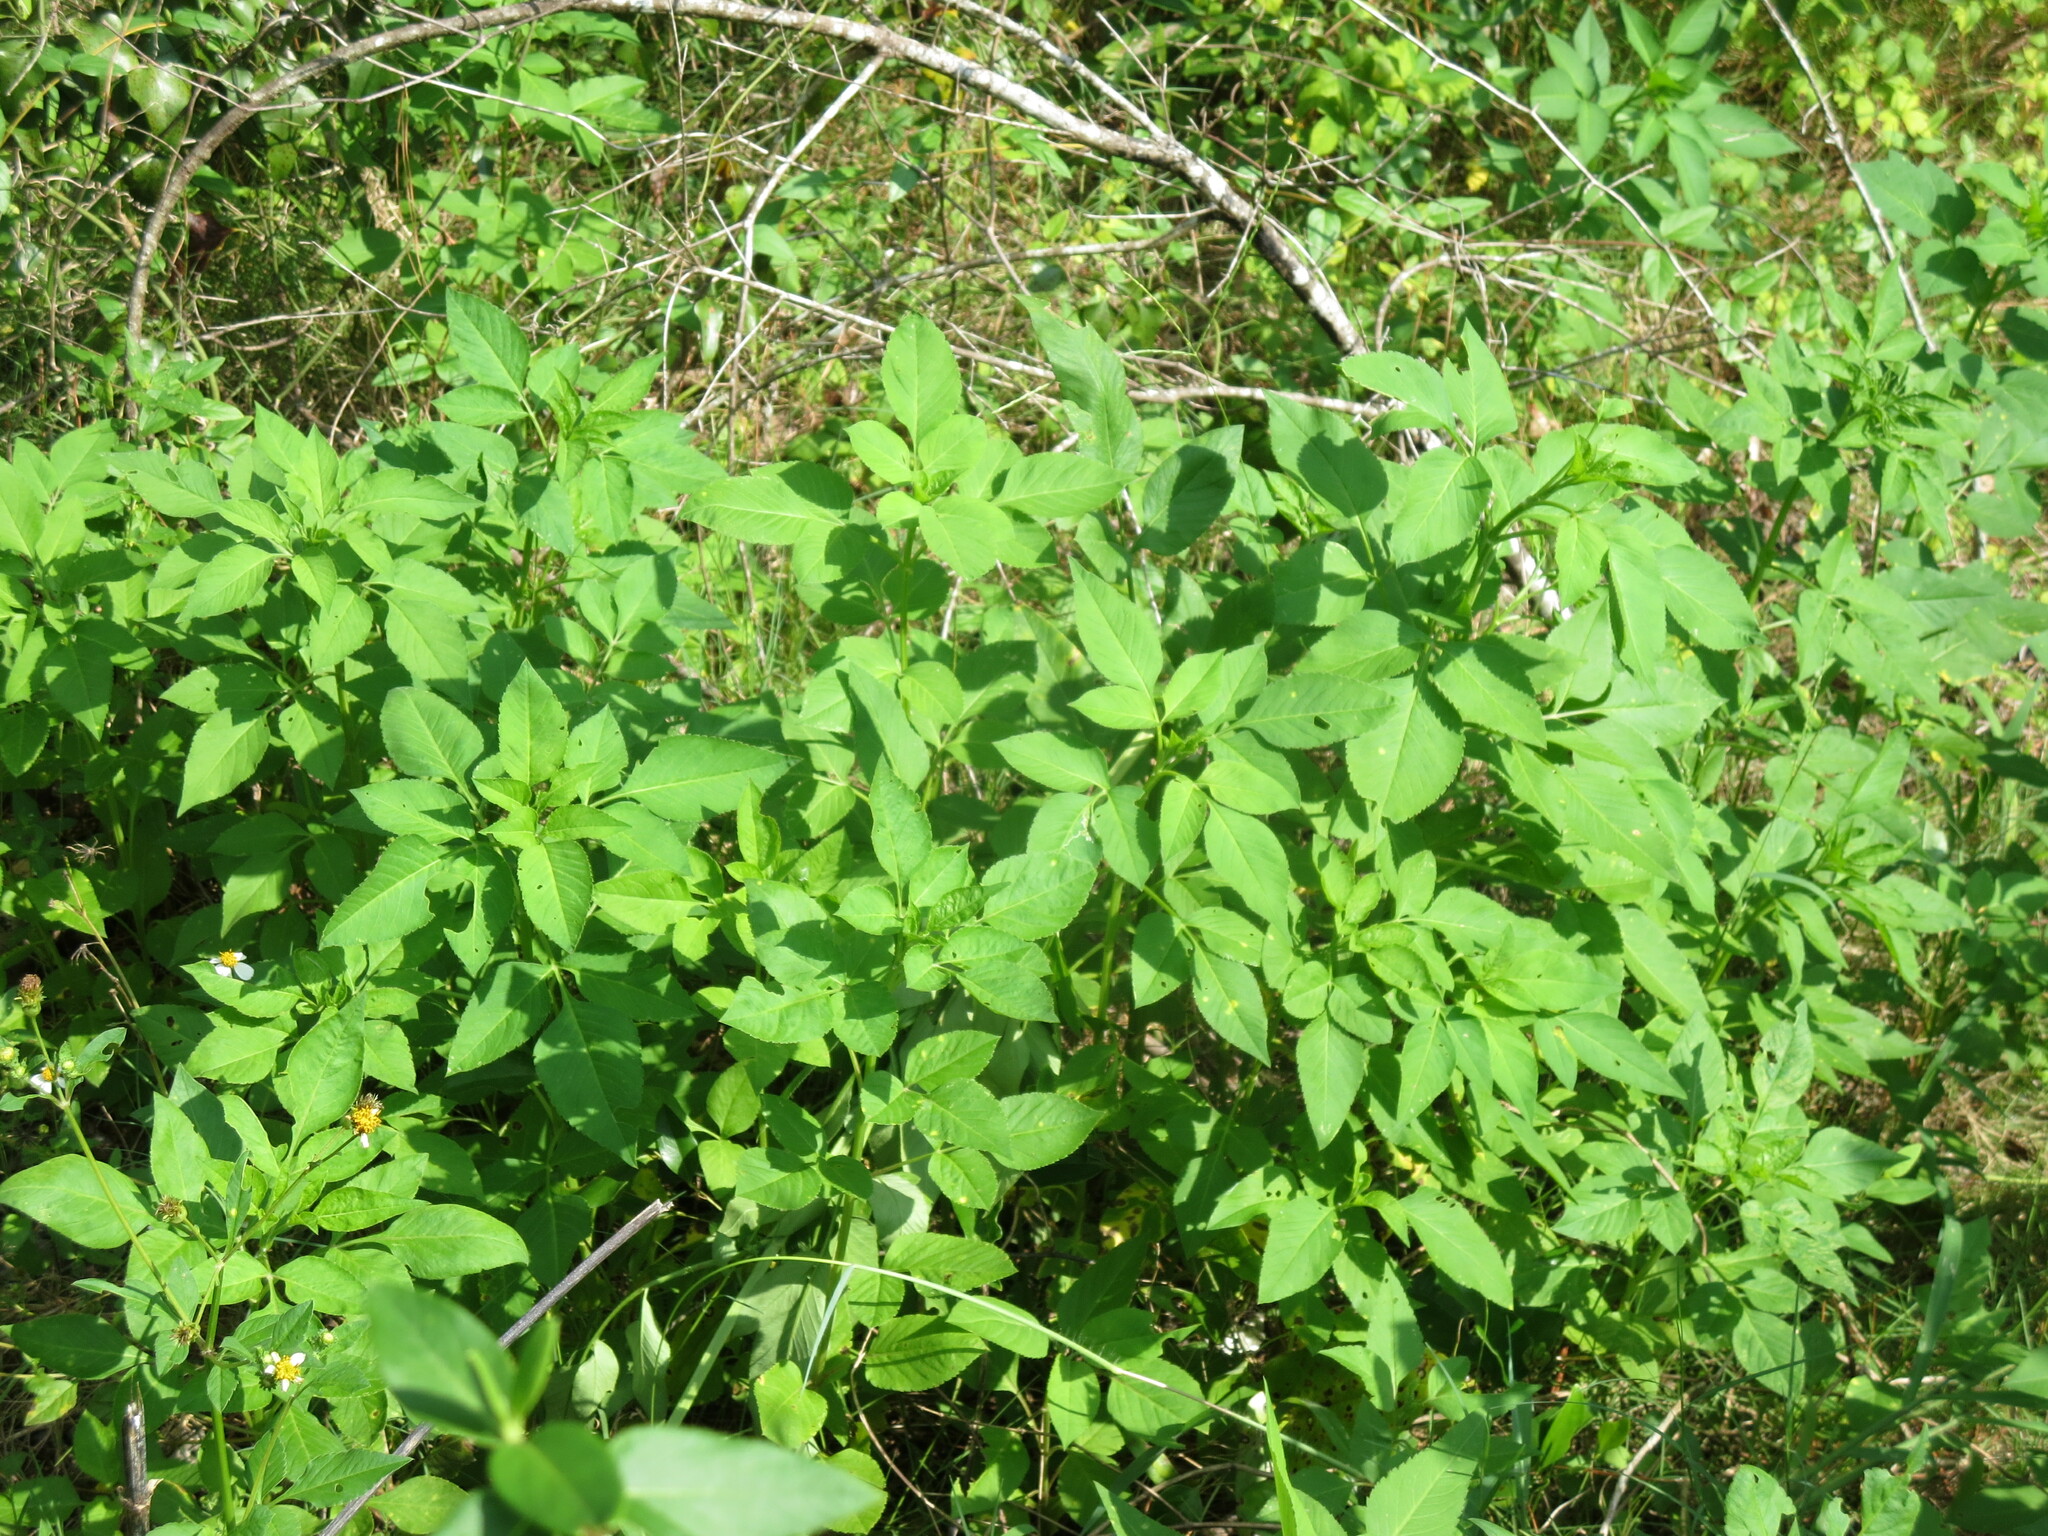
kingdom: Plantae
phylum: Tracheophyta
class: Magnoliopsida
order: Asterales
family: Asteraceae
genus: Bidens
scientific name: Bidens alba
